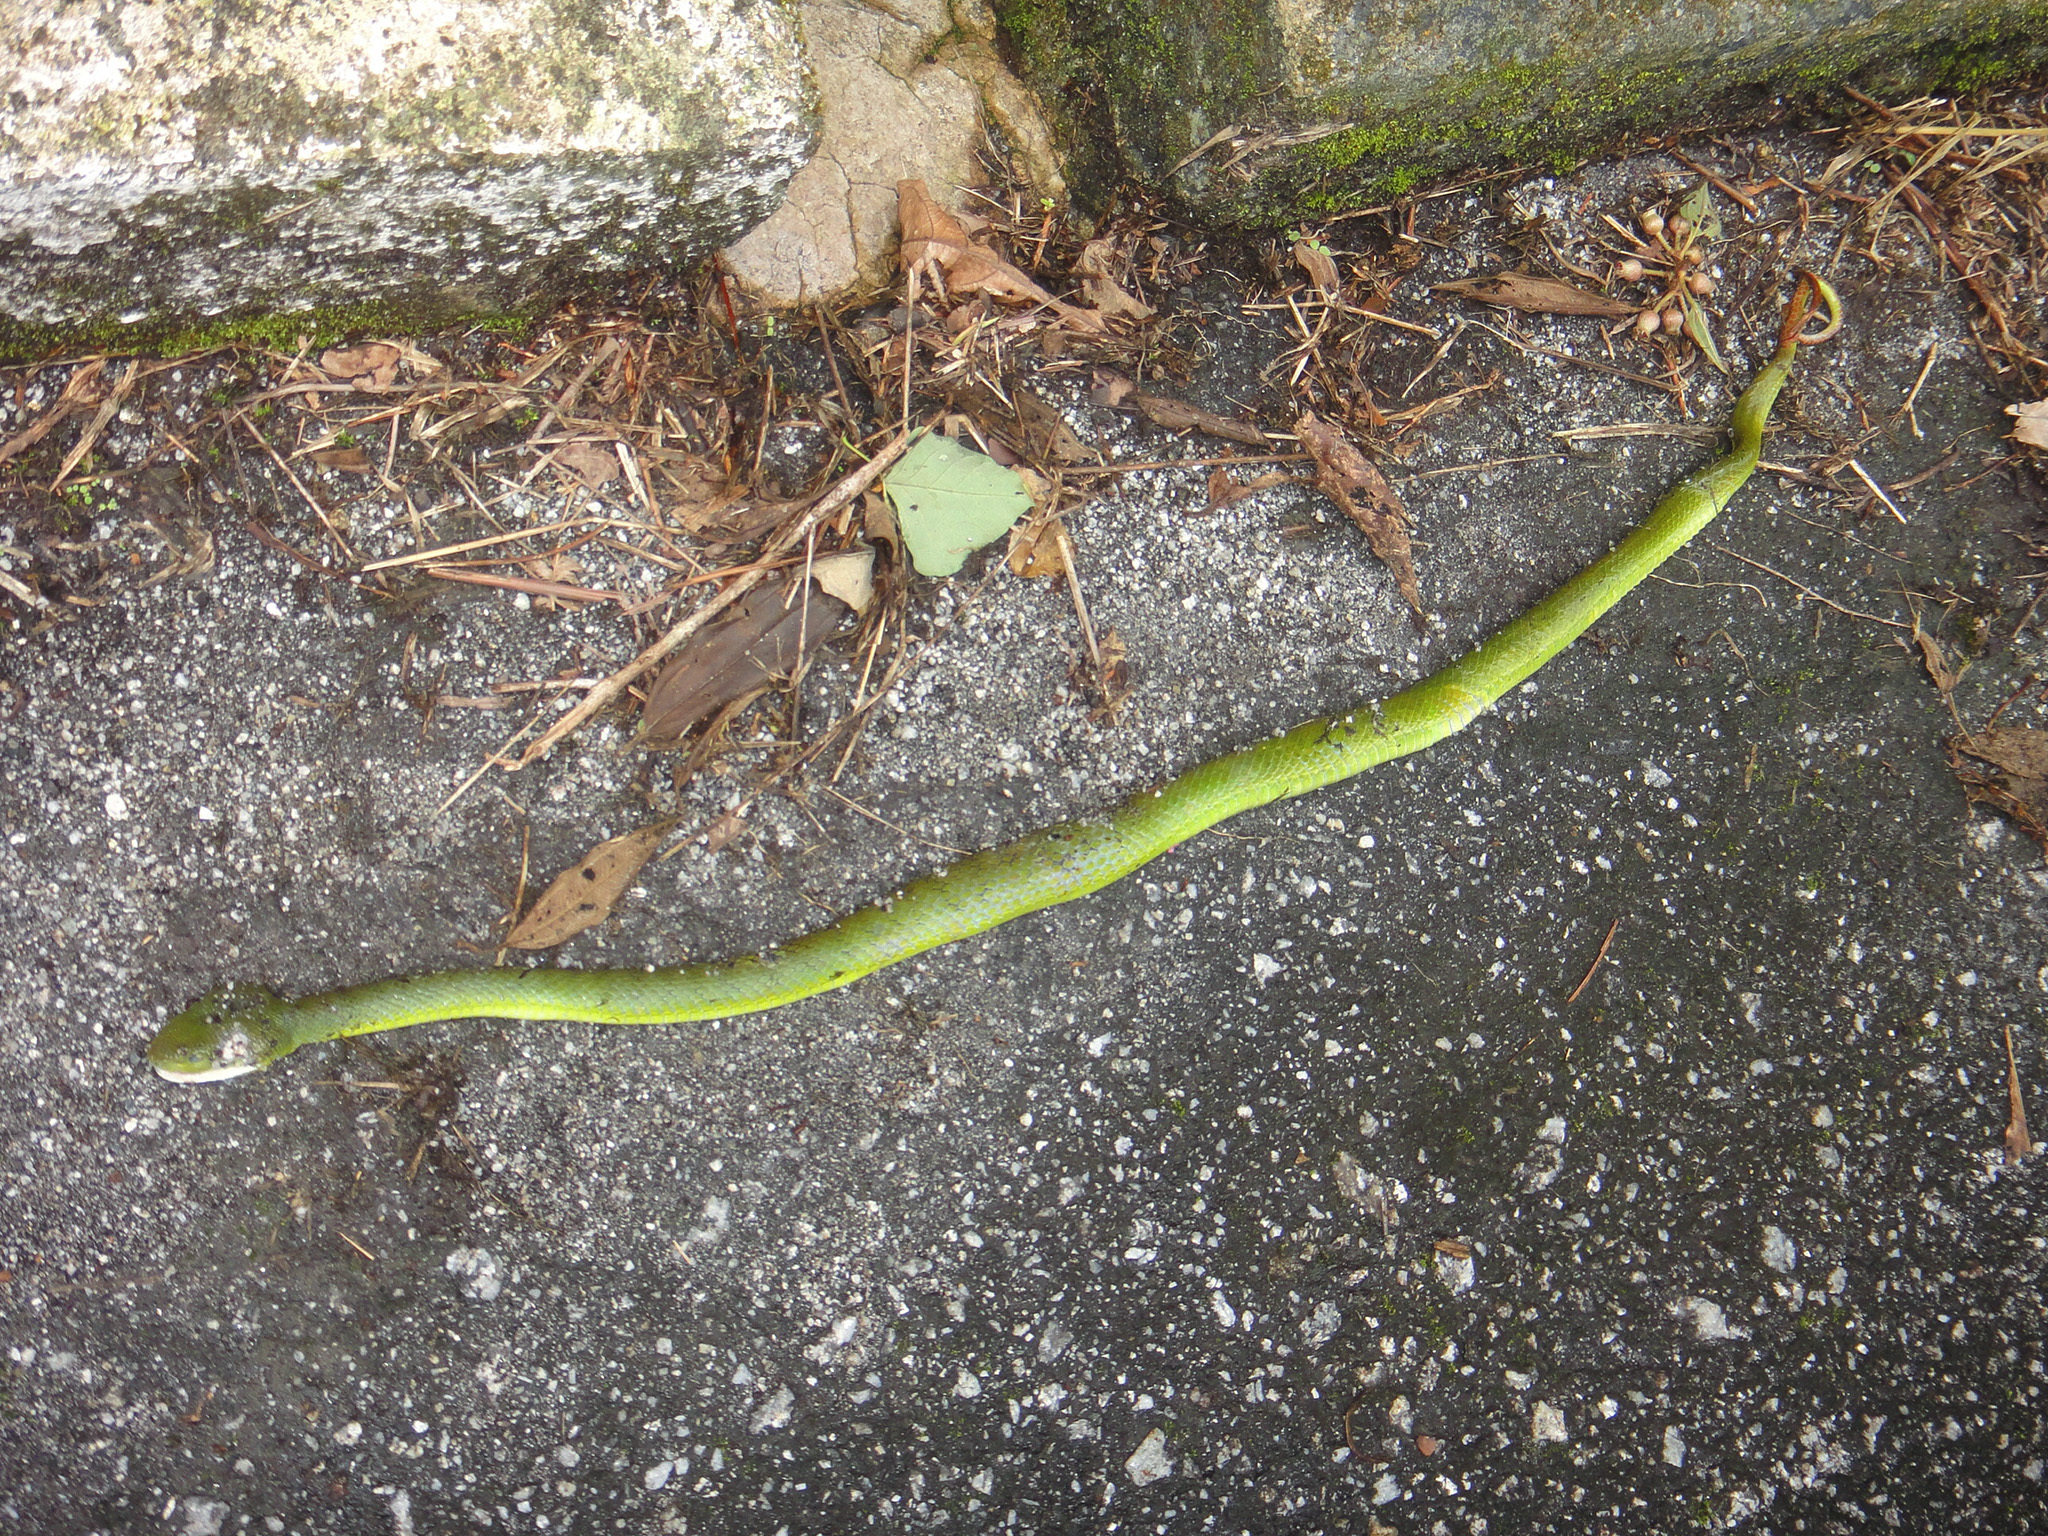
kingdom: Animalia
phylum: Chordata
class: Squamata
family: Viperidae
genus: Trimeresurus
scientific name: Trimeresurus sabahi
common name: Sabah bamboo pit viper
